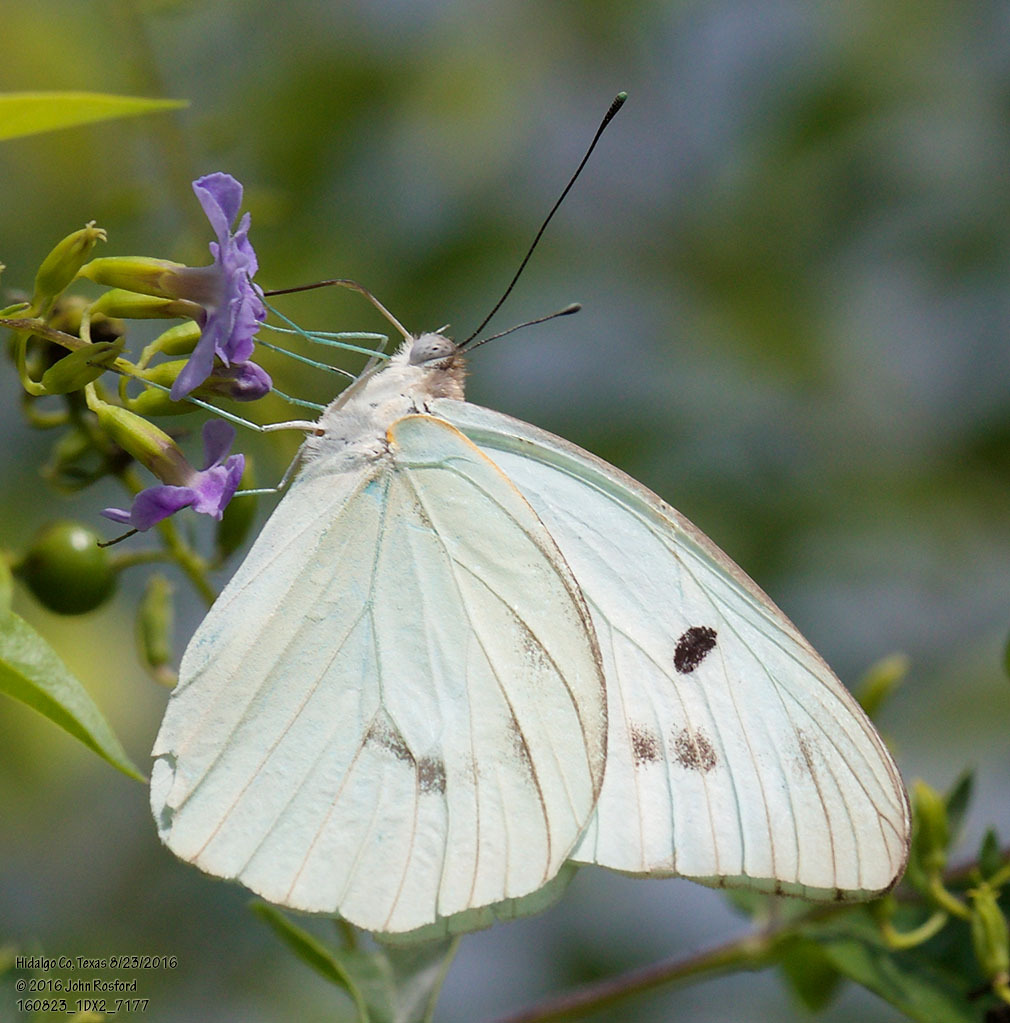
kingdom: Animalia
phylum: Arthropoda
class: Insecta
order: Lepidoptera
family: Pieridae
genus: Ganyra
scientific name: Ganyra josephina
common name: Giant white
